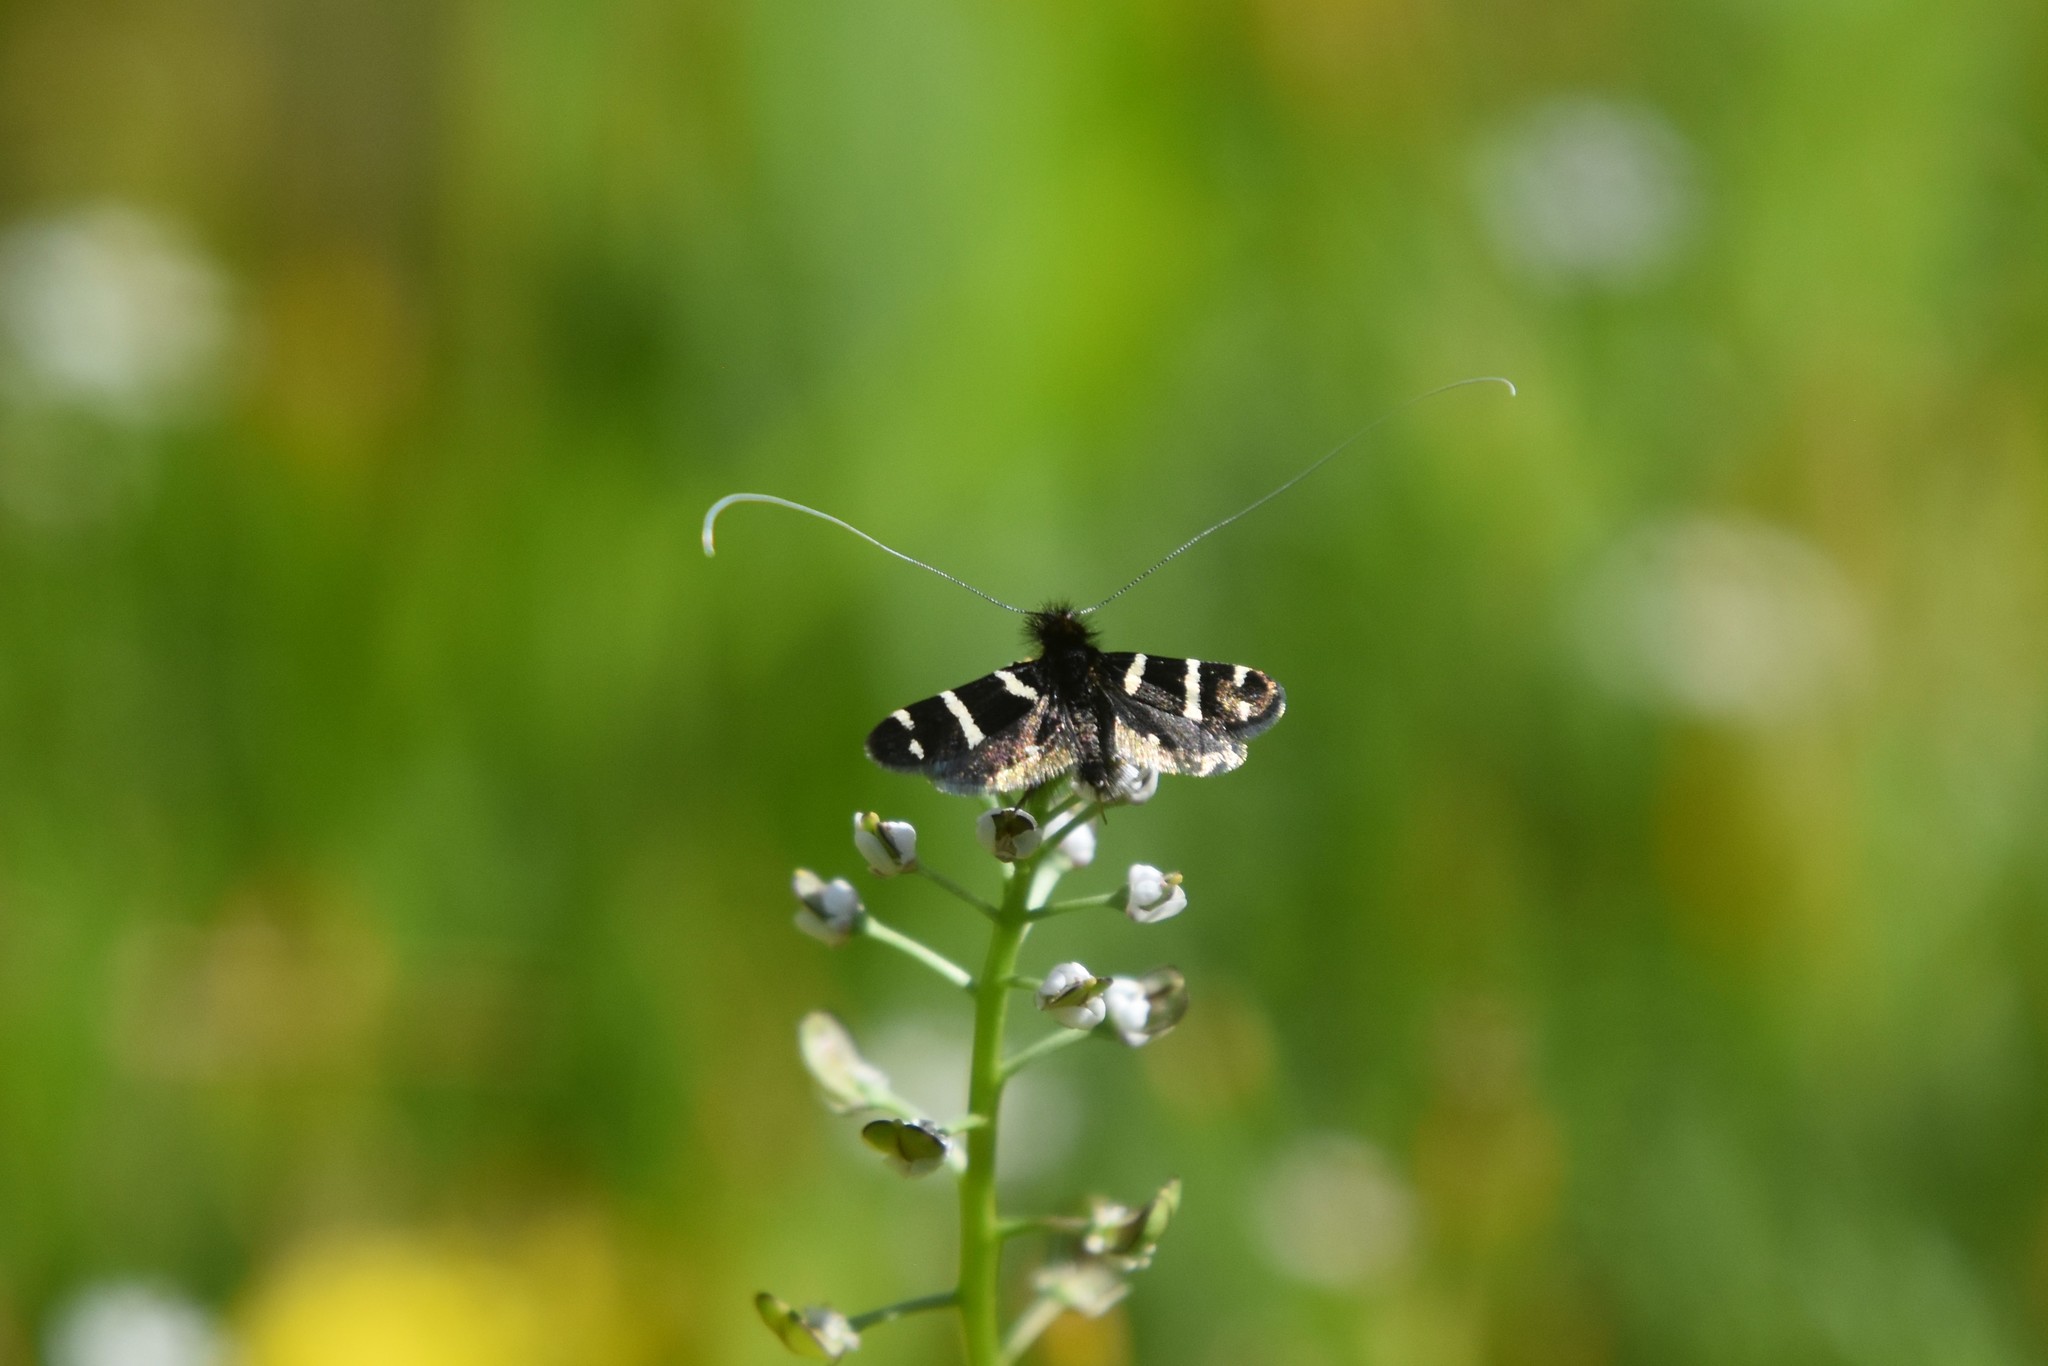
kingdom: Animalia
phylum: Arthropoda
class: Insecta
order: Lepidoptera
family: Adelidae
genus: Adela
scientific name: Adela trigrapha
